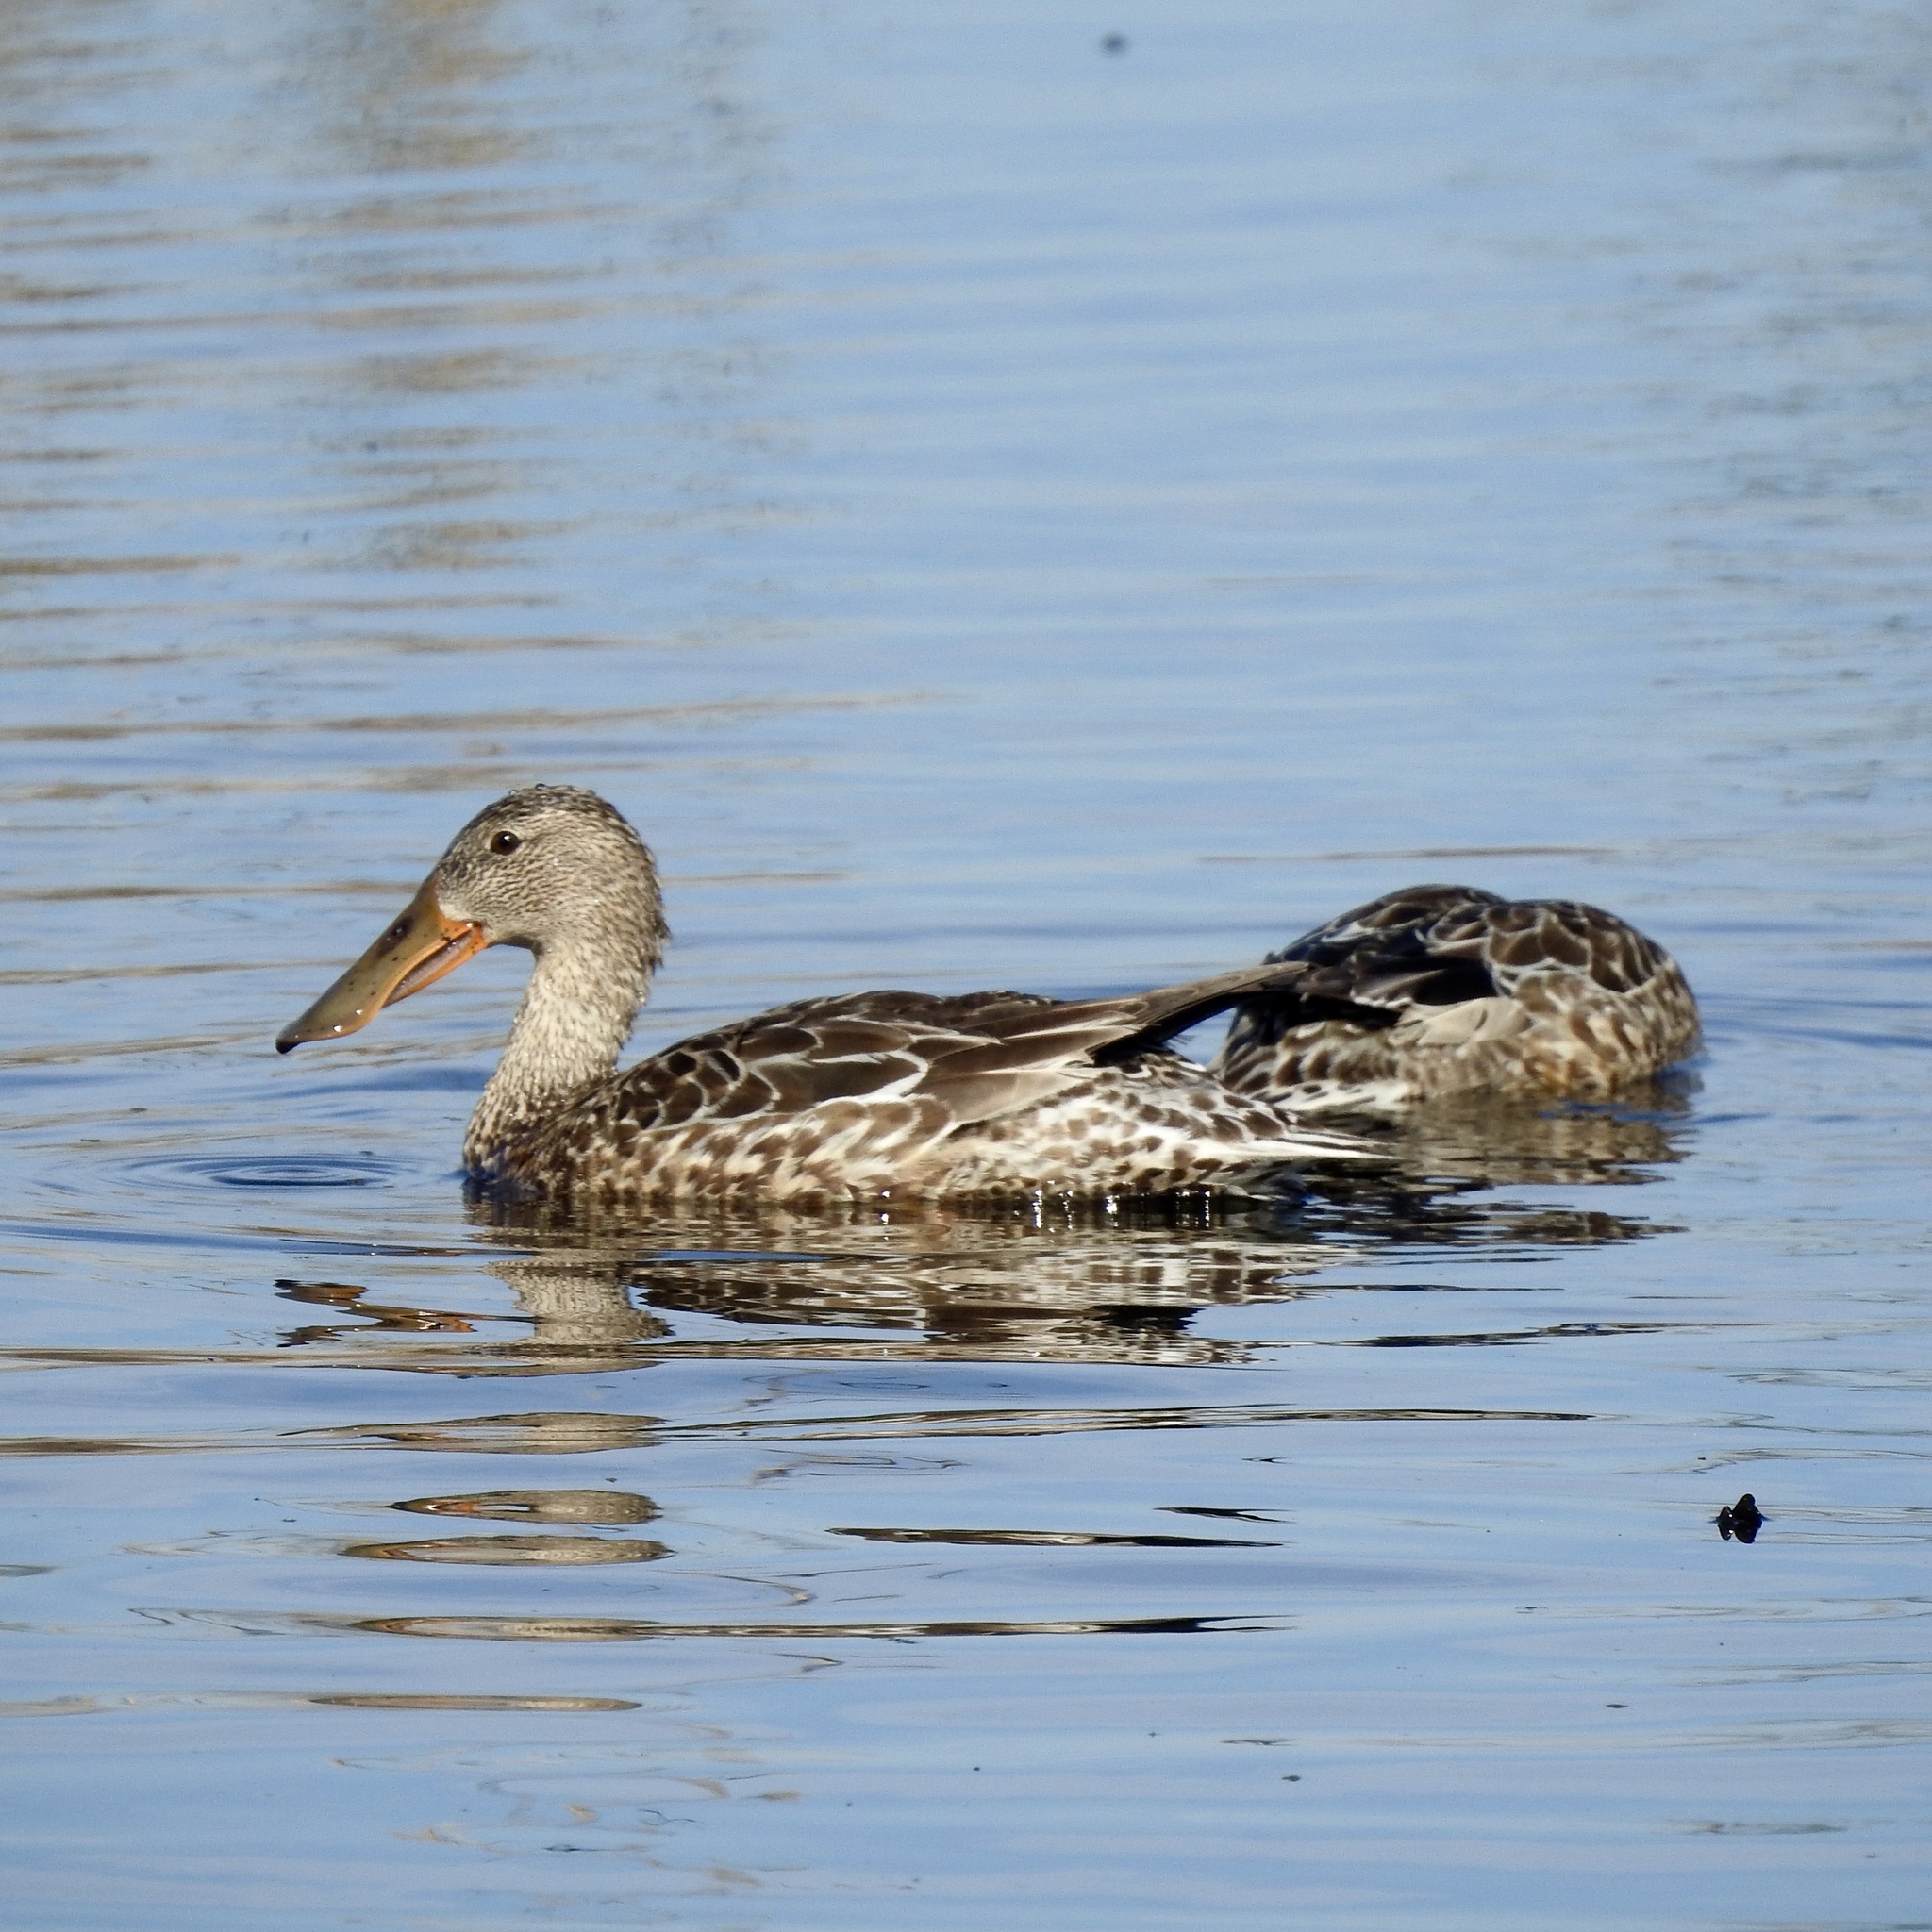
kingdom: Animalia
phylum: Chordata
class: Aves
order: Anseriformes
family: Anatidae
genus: Spatula
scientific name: Spatula clypeata
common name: Northern shoveler
